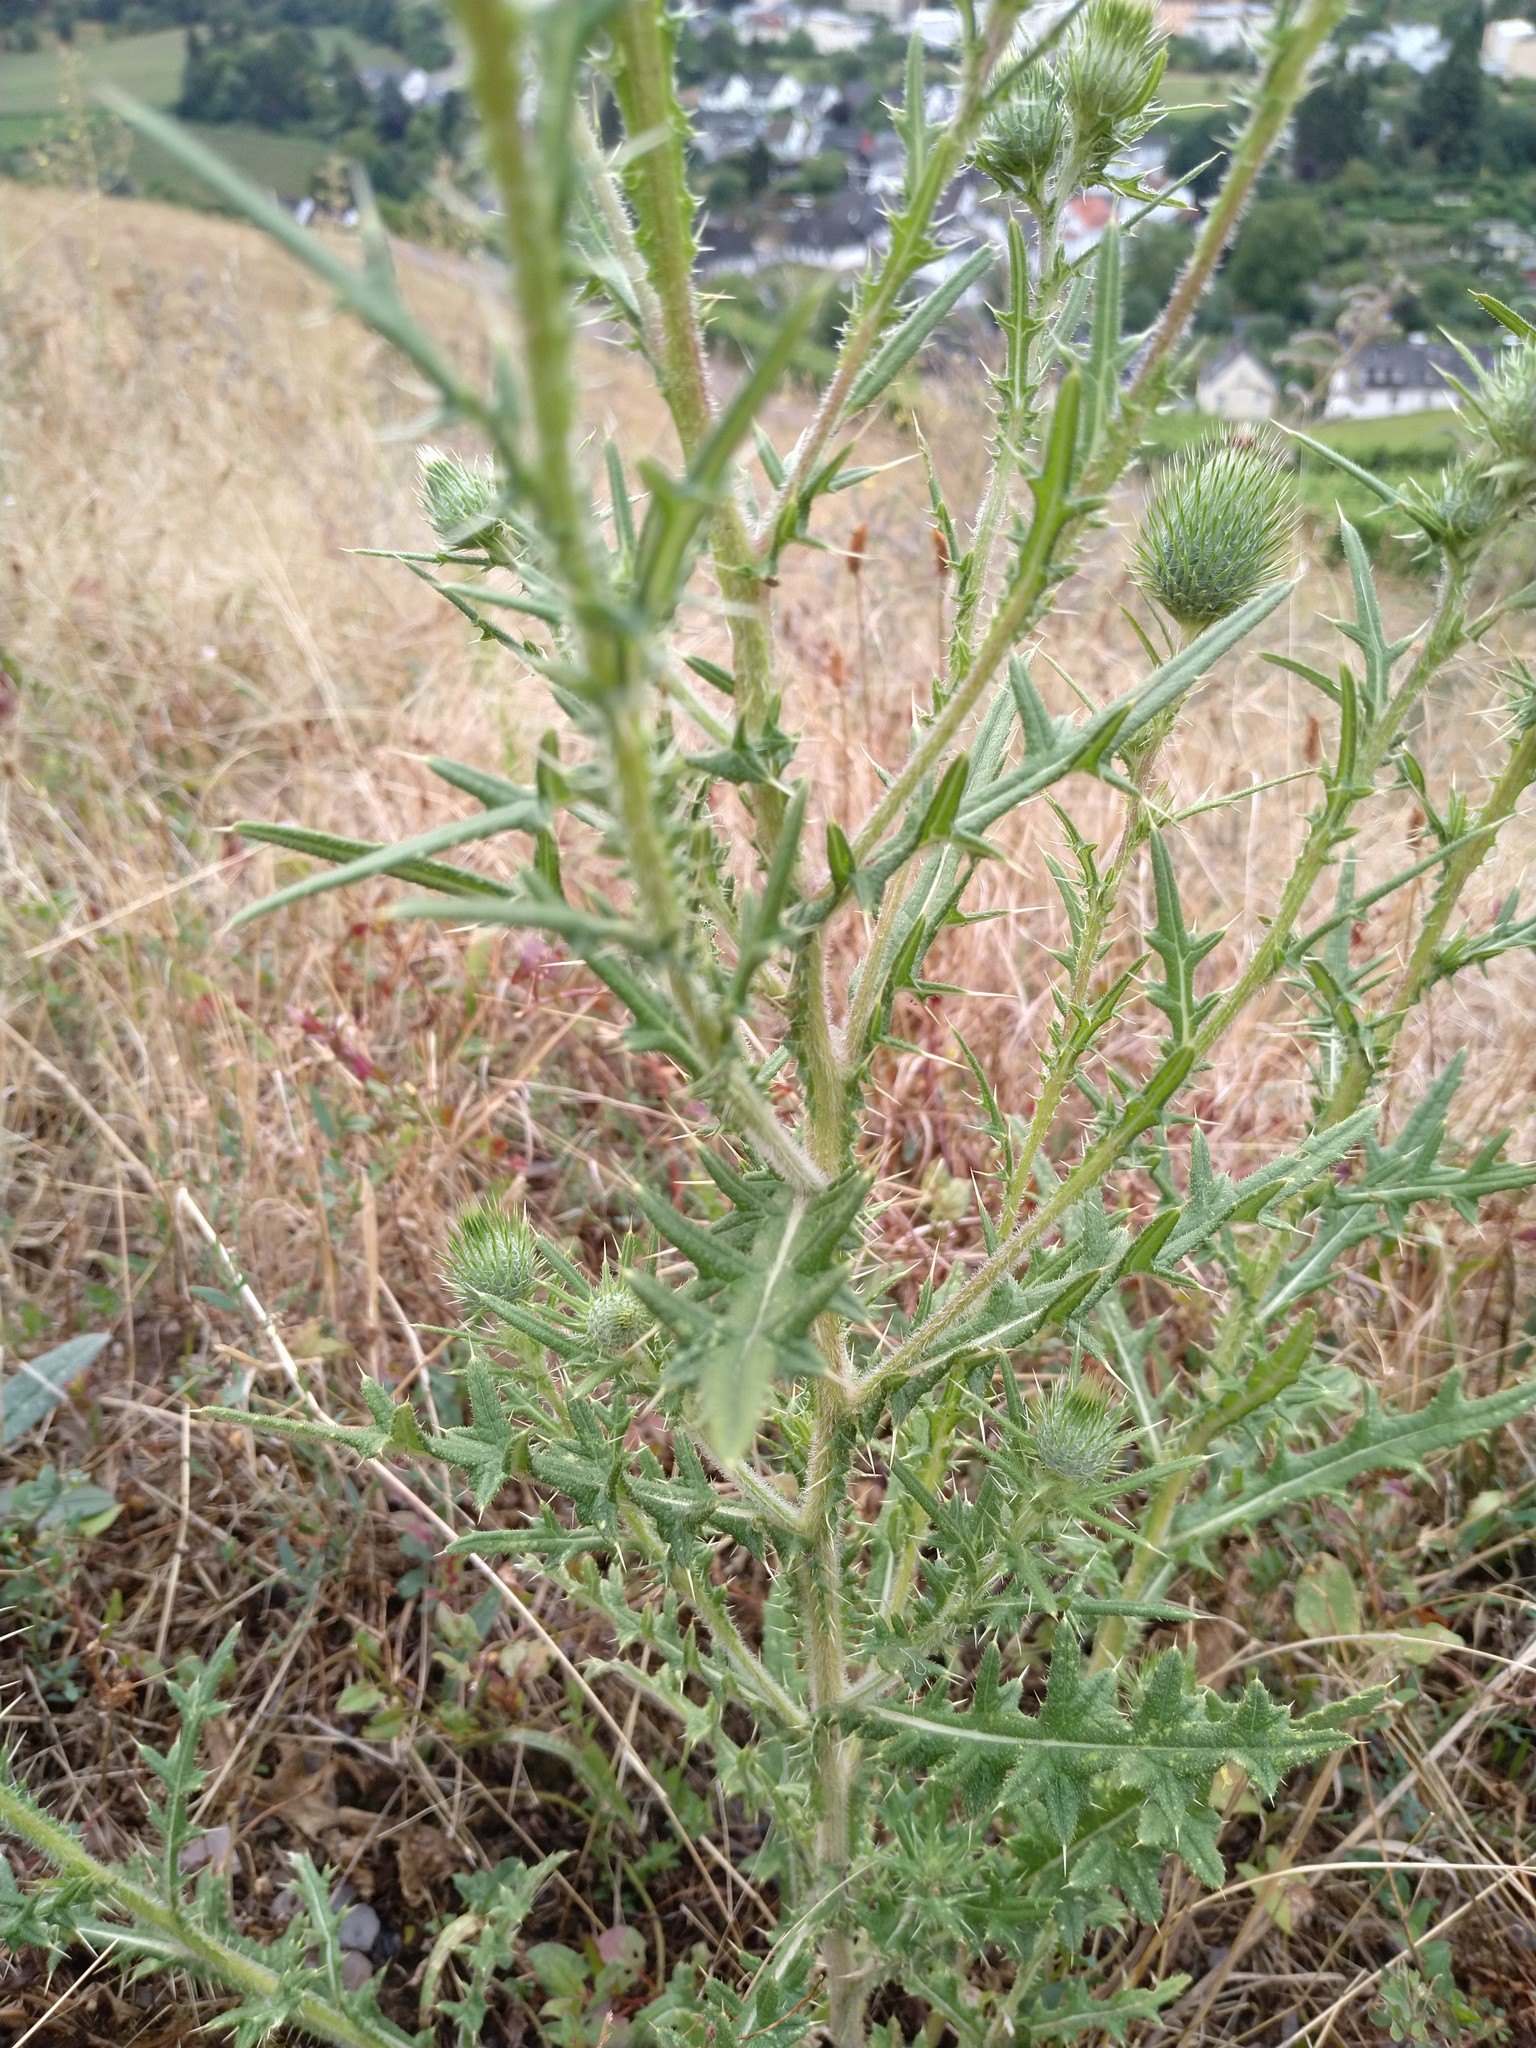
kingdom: Plantae
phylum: Tracheophyta
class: Magnoliopsida
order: Asterales
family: Asteraceae
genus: Cirsium
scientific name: Cirsium vulgare
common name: Bull thistle
